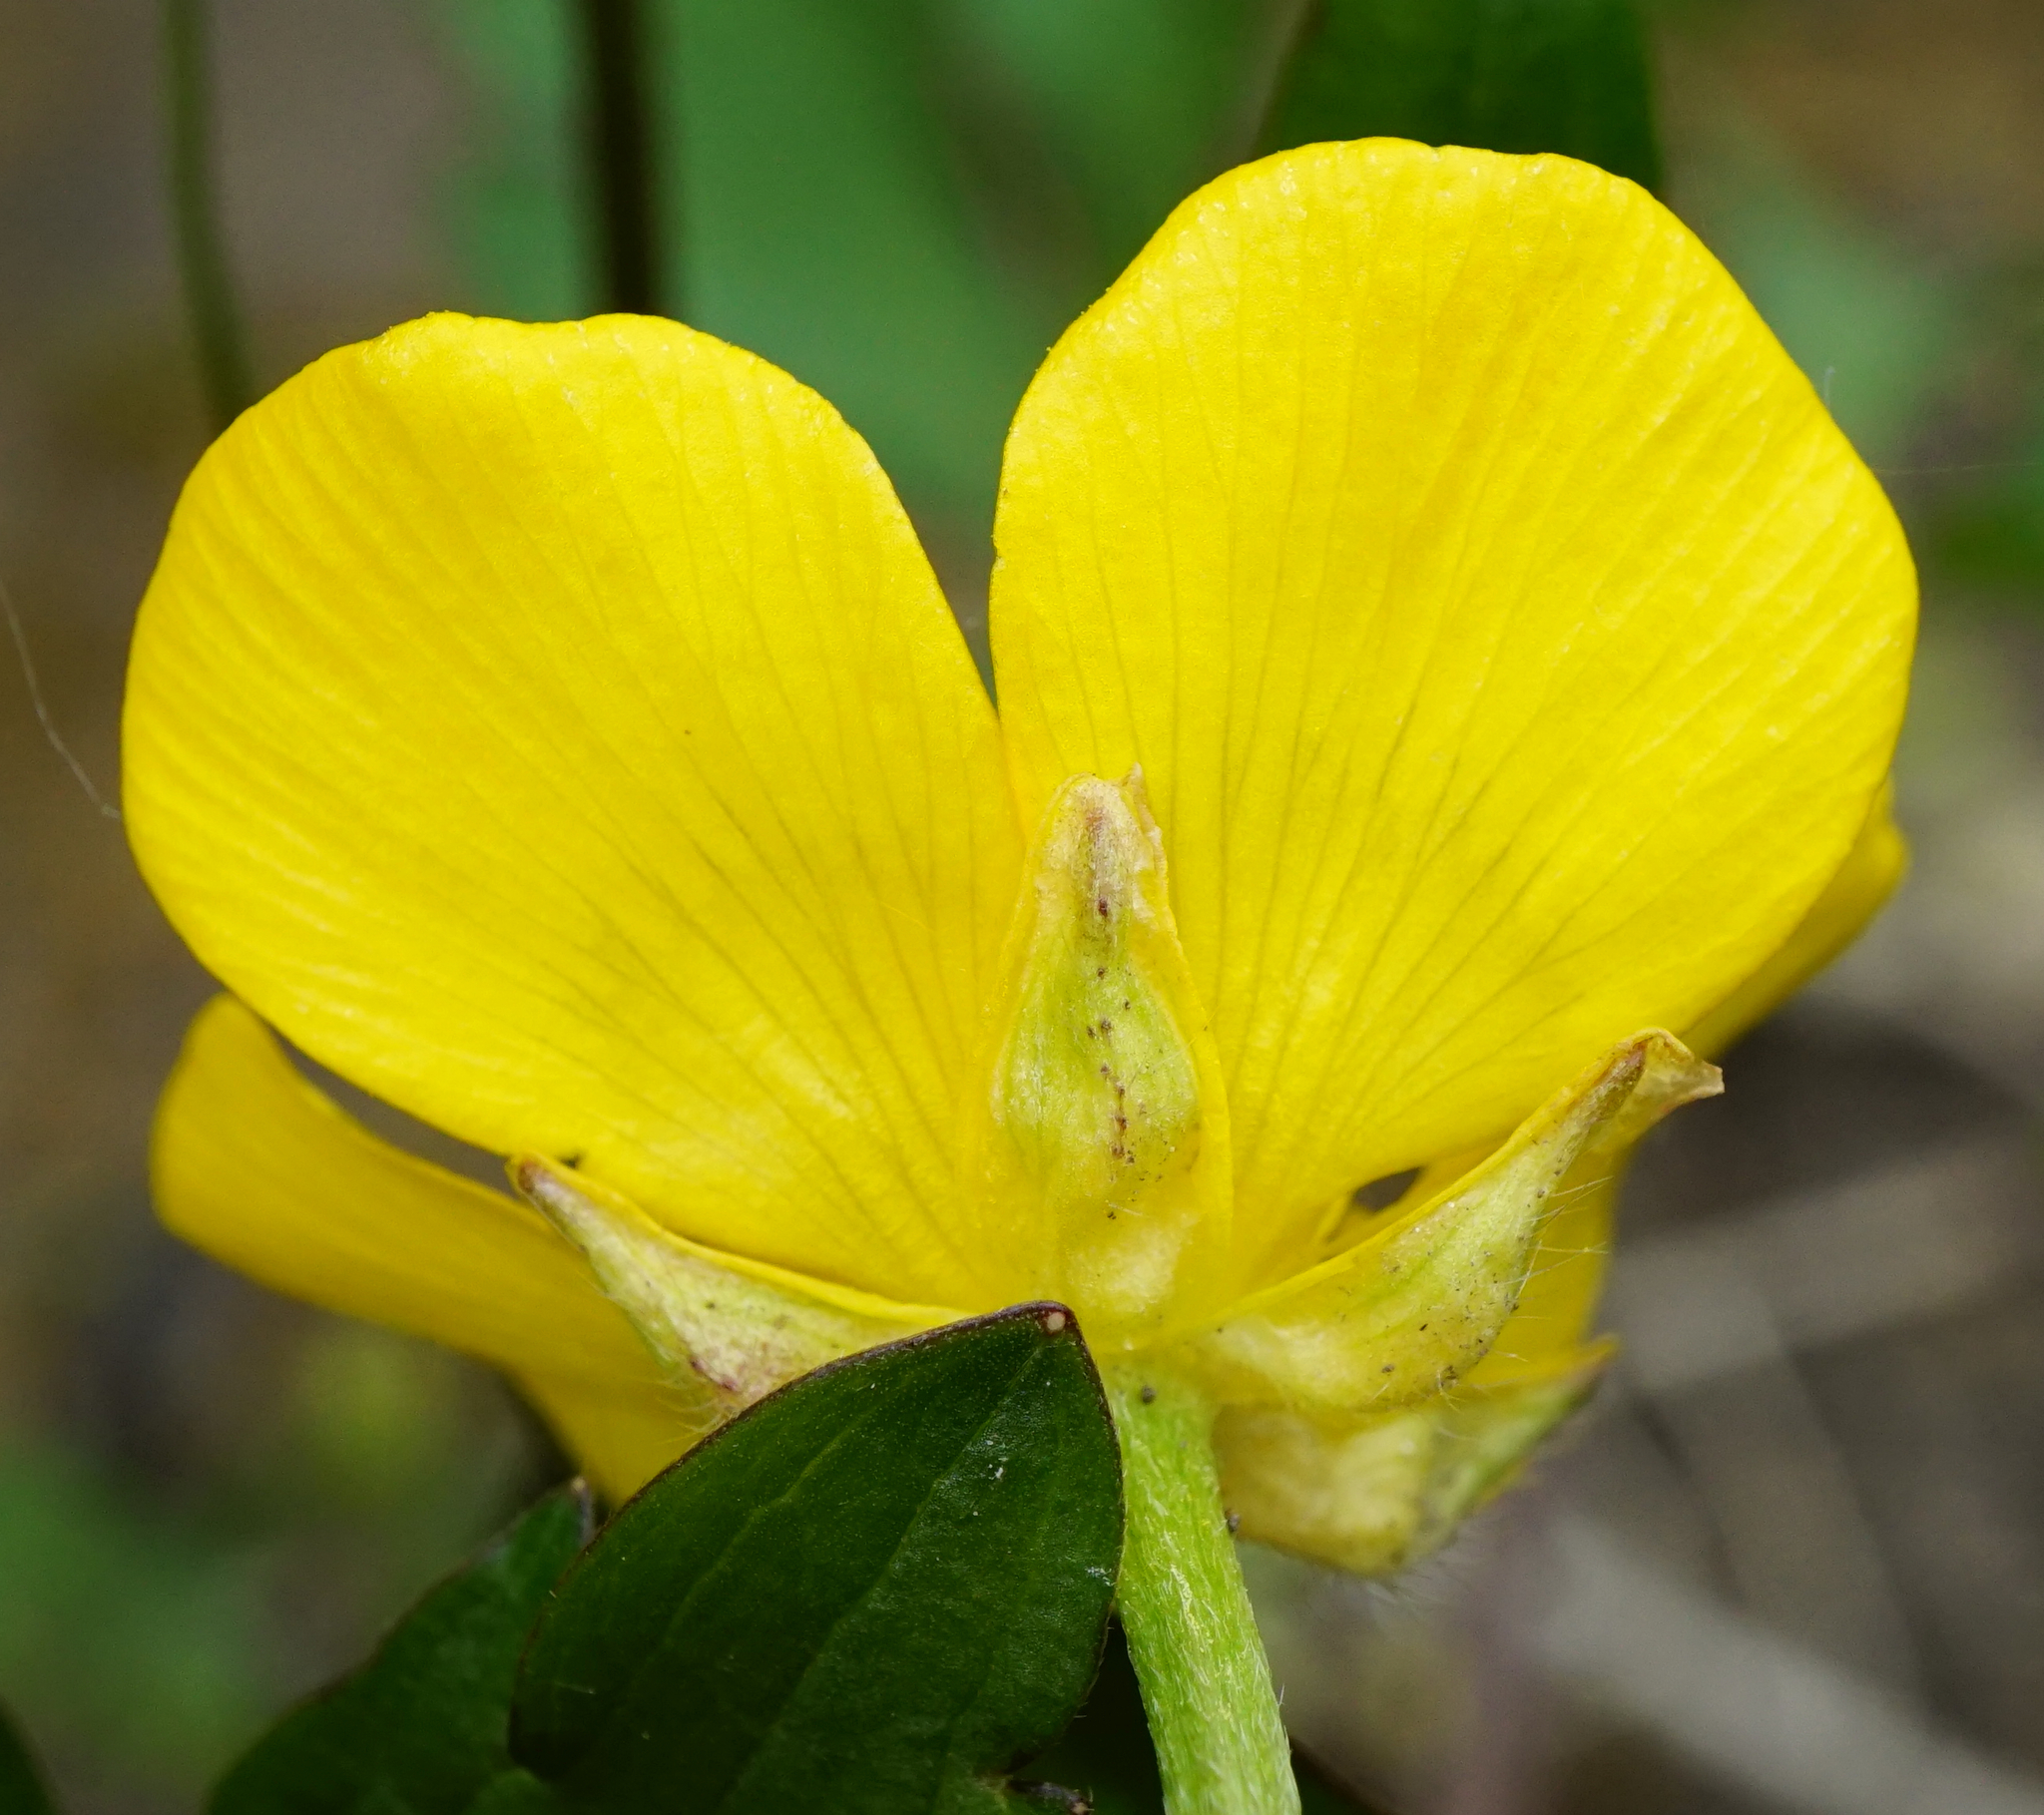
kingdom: Plantae
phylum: Tracheophyta
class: Magnoliopsida
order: Ranunculales
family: Ranunculaceae
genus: Ranunculus
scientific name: Ranunculus repens
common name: Creeping buttercup
